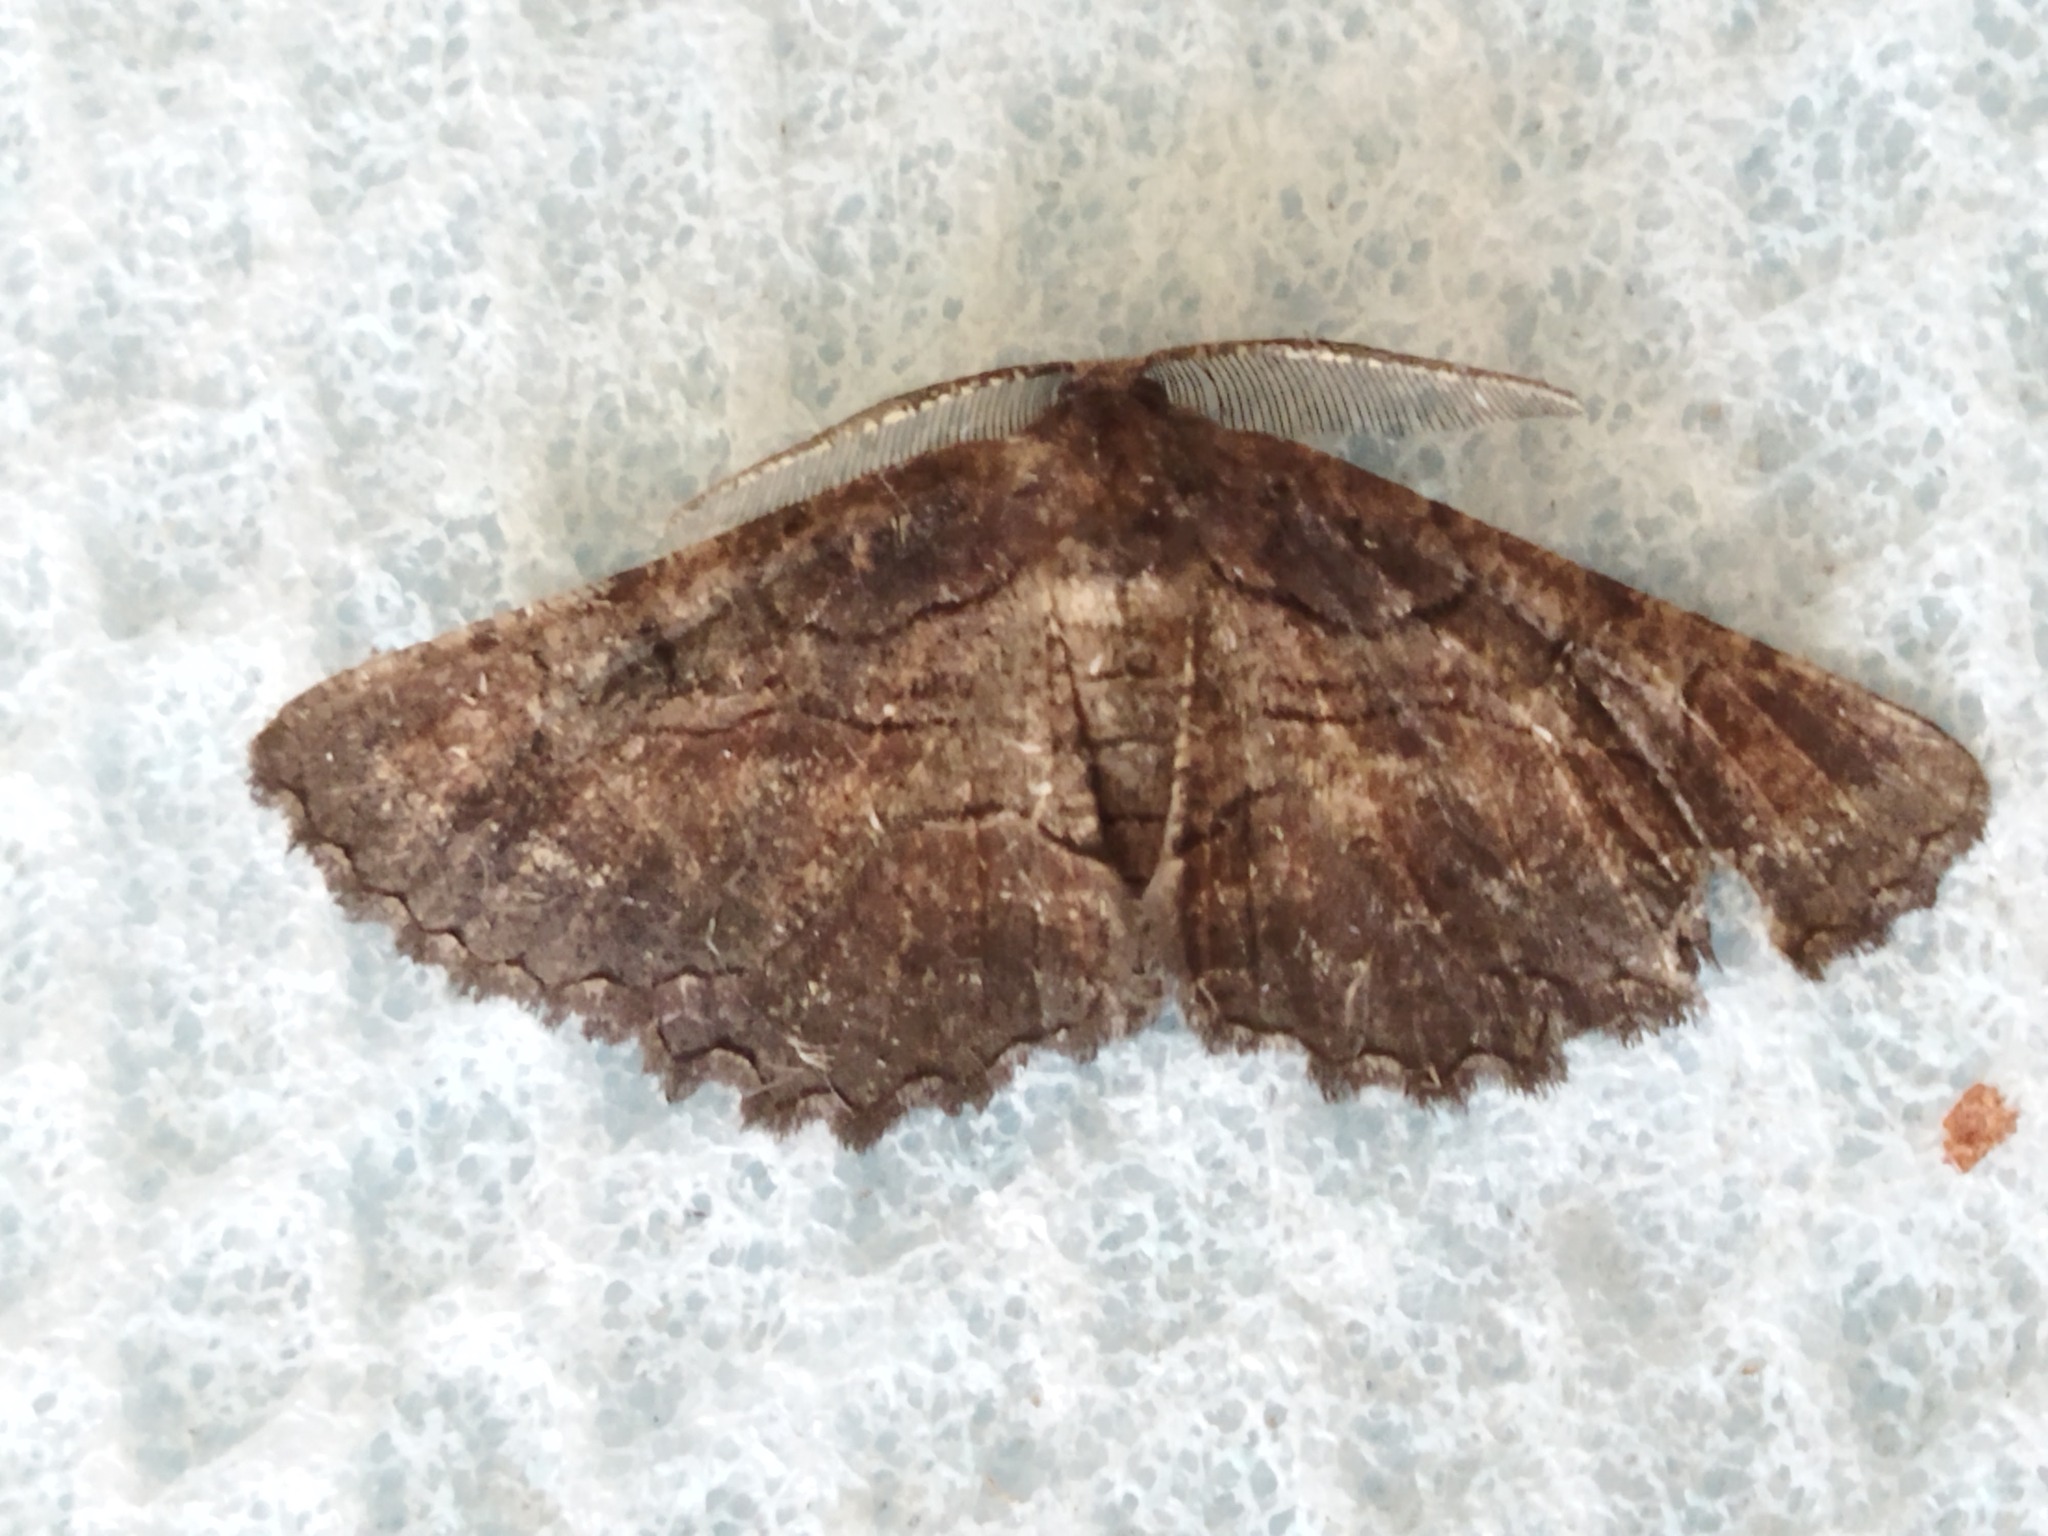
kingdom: Animalia
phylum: Arthropoda
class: Insecta
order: Lepidoptera
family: Geometridae
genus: Nychiodes
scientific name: Nychiodes waltheri
